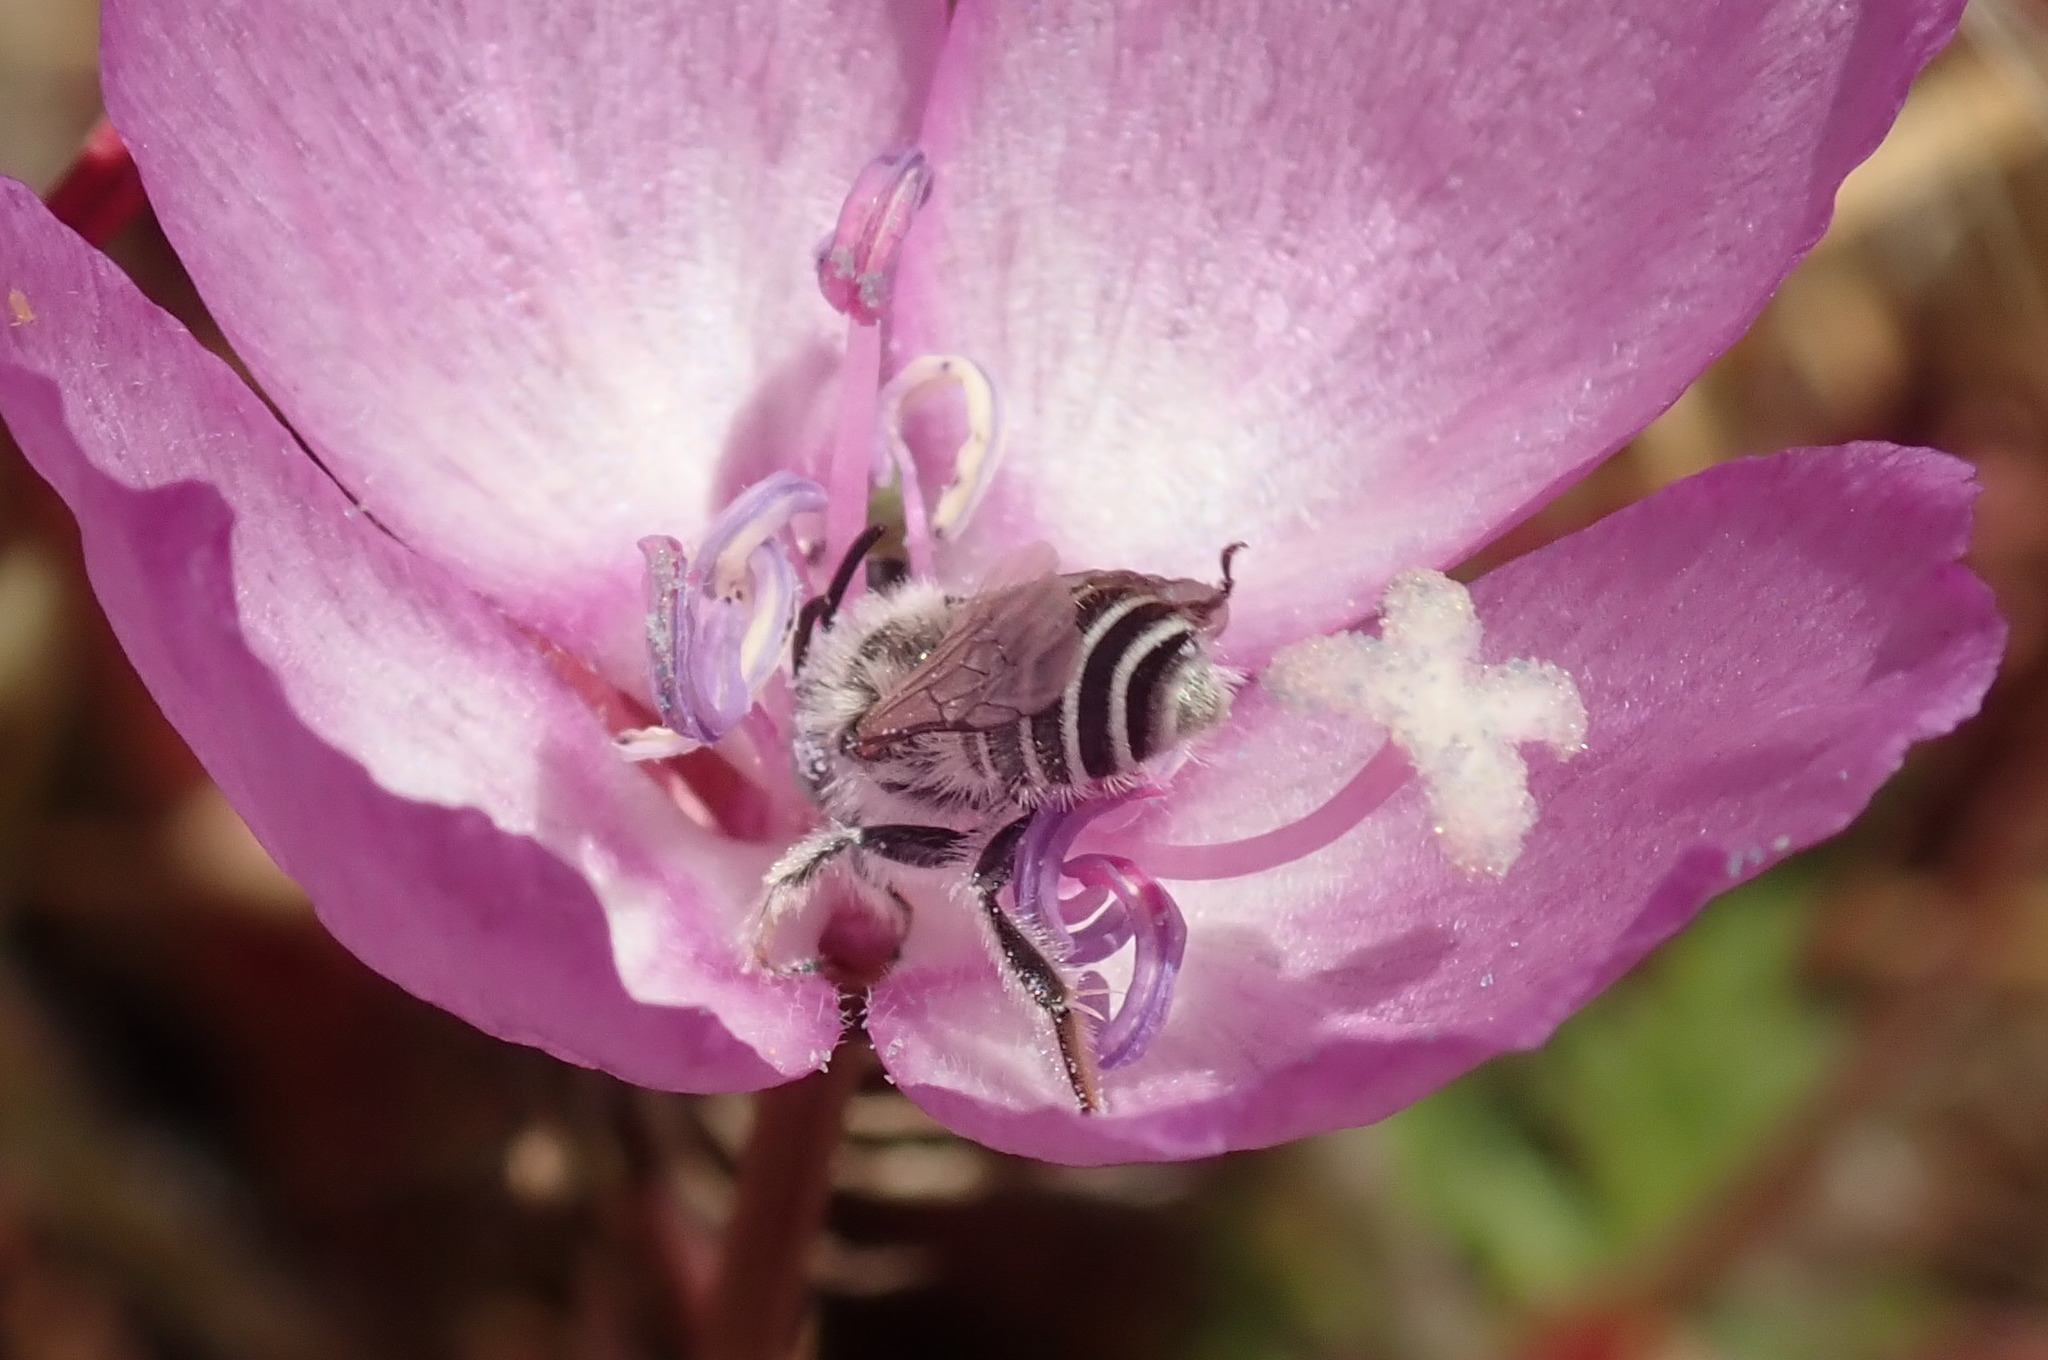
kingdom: Plantae
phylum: Tracheophyta
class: Magnoliopsida
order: Myrtales
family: Onagraceae
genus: Clarkia
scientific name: Clarkia lewisii
